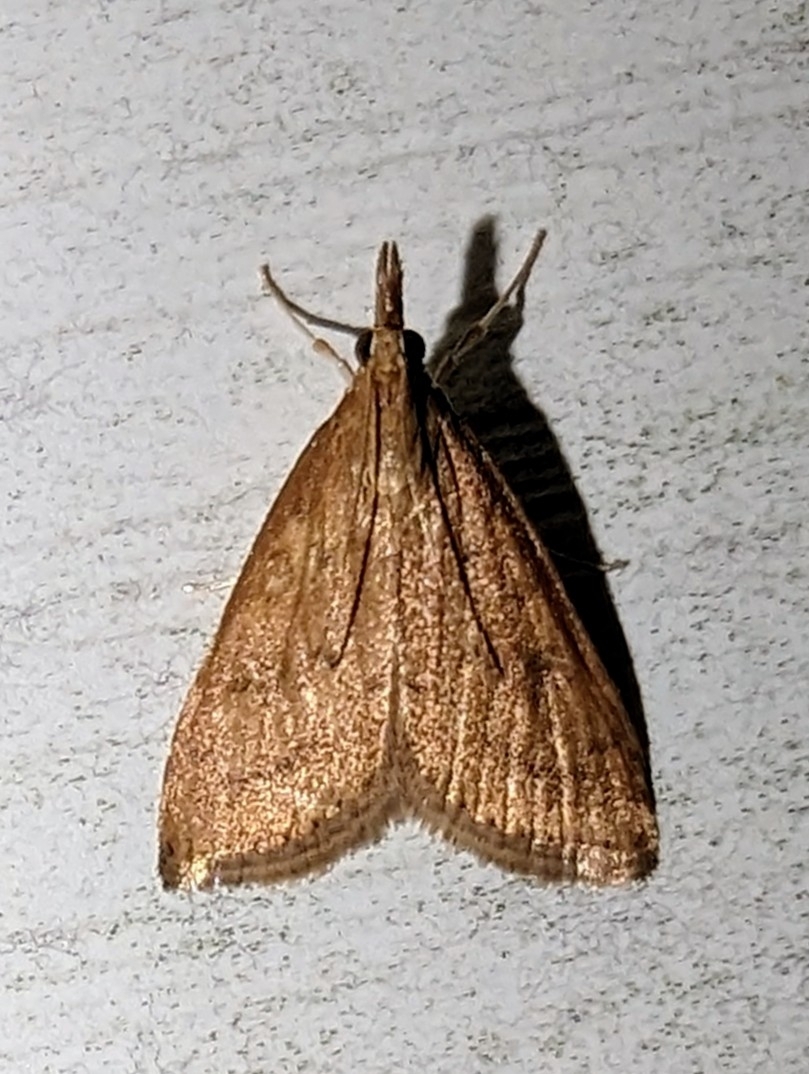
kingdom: Animalia
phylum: Arthropoda
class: Insecta
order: Lepidoptera
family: Crambidae
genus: Udea
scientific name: Udea rubigalis
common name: Celery leaftier moth
